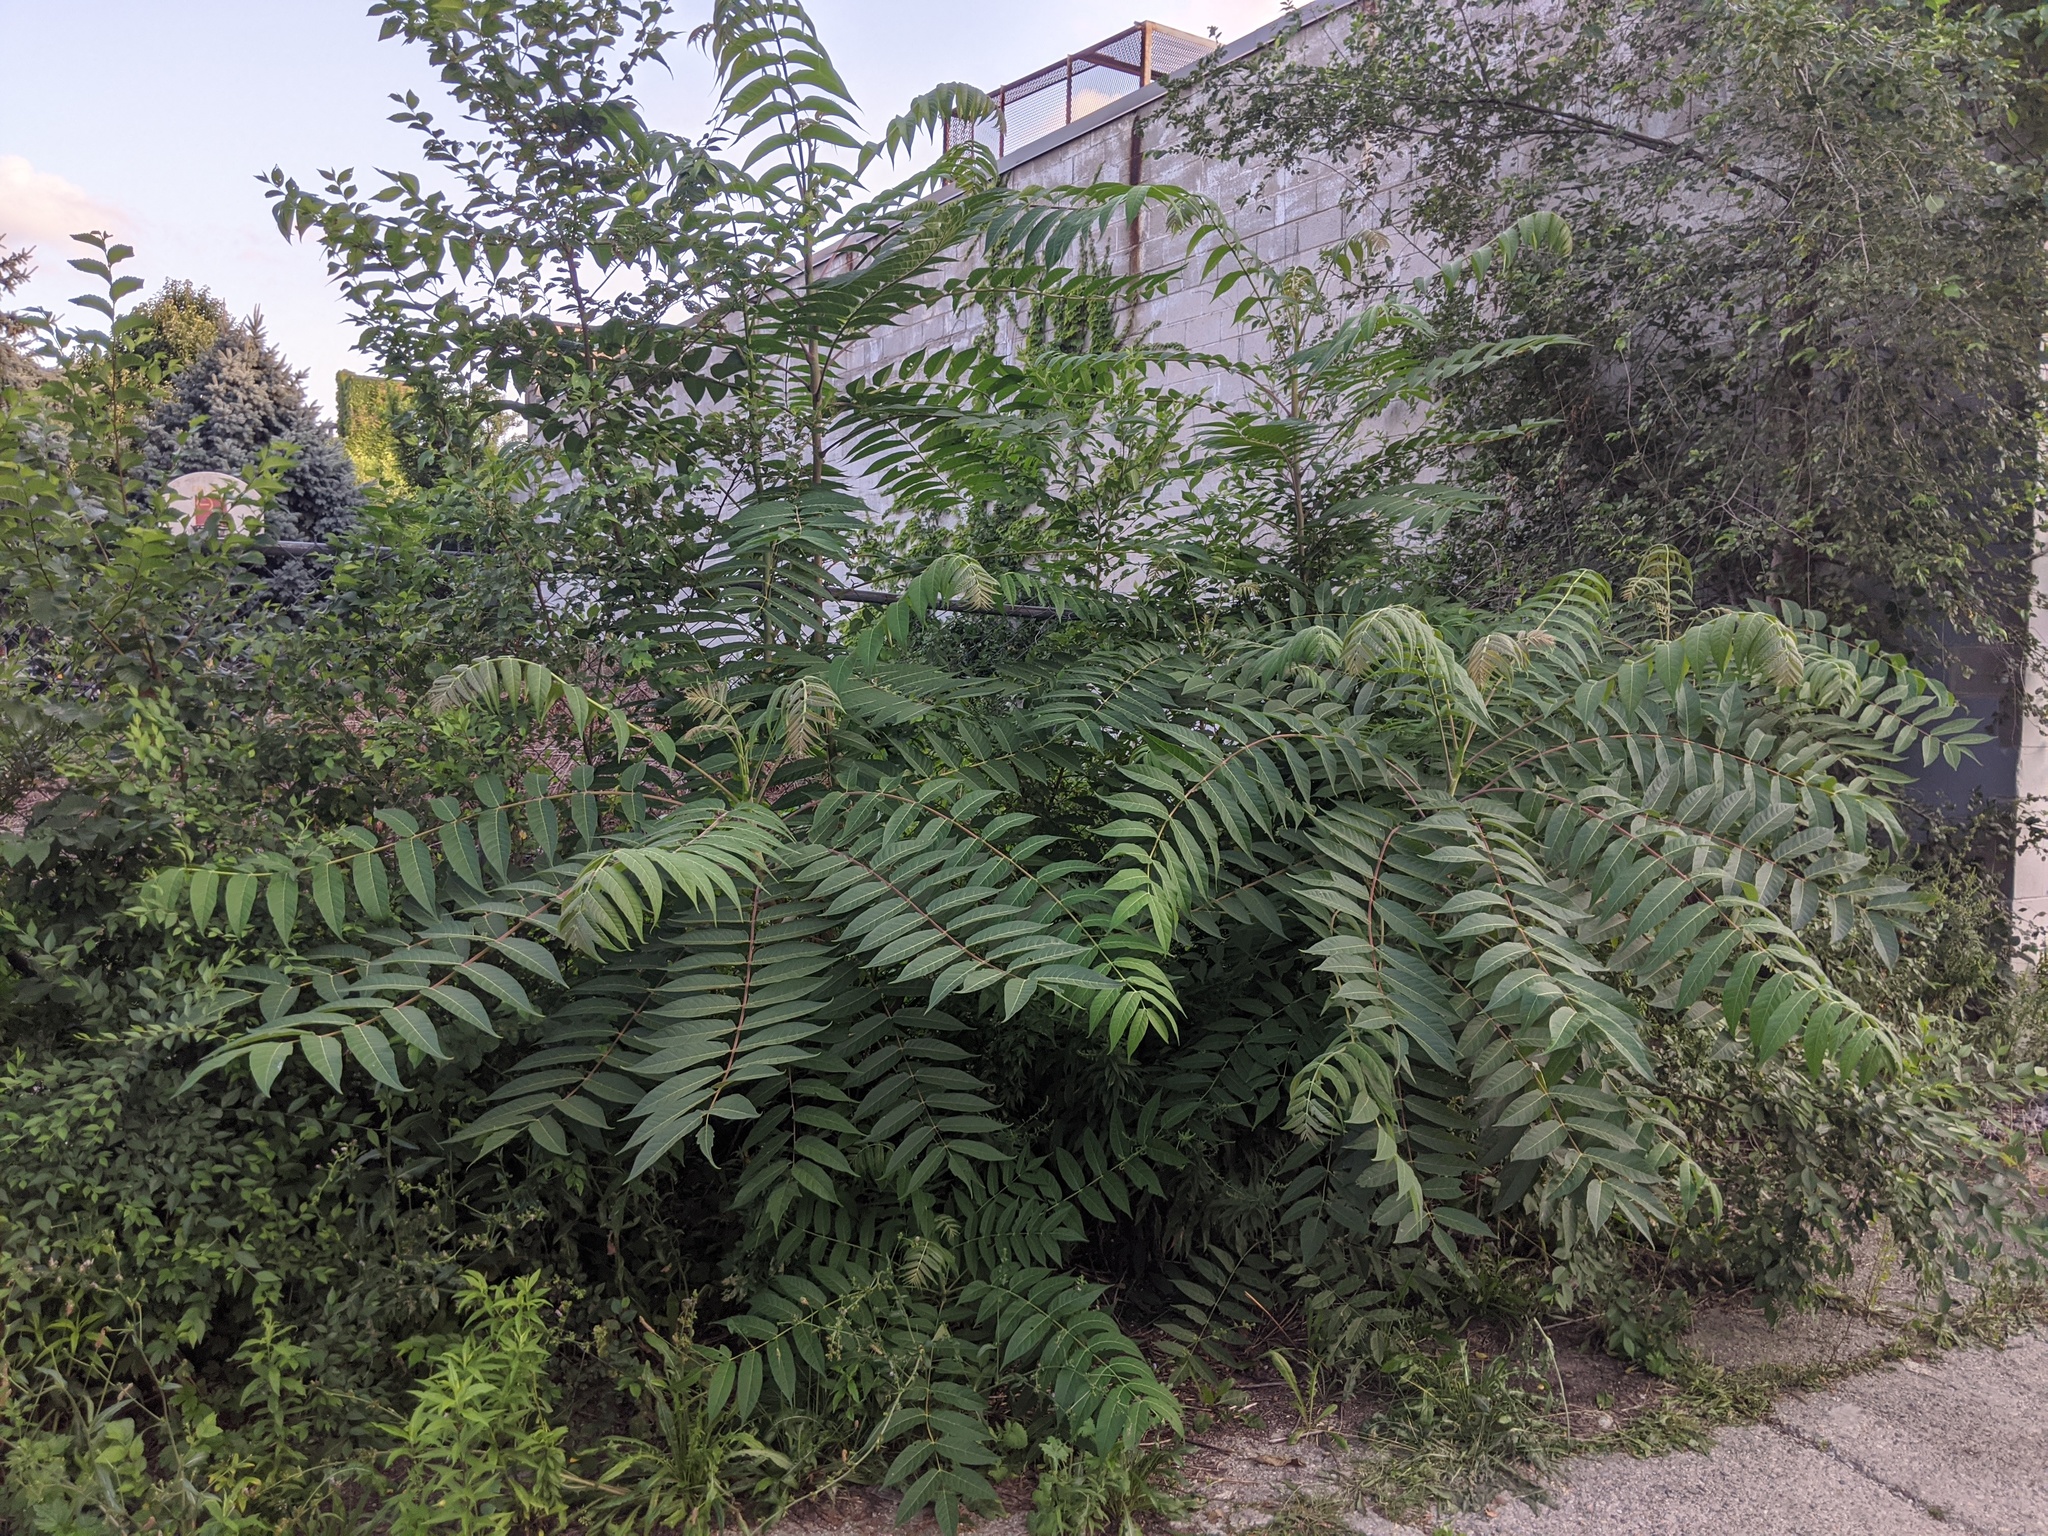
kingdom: Plantae
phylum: Tracheophyta
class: Magnoliopsida
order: Sapindales
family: Simaroubaceae
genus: Ailanthus
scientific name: Ailanthus altissima
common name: Tree-of-heaven
